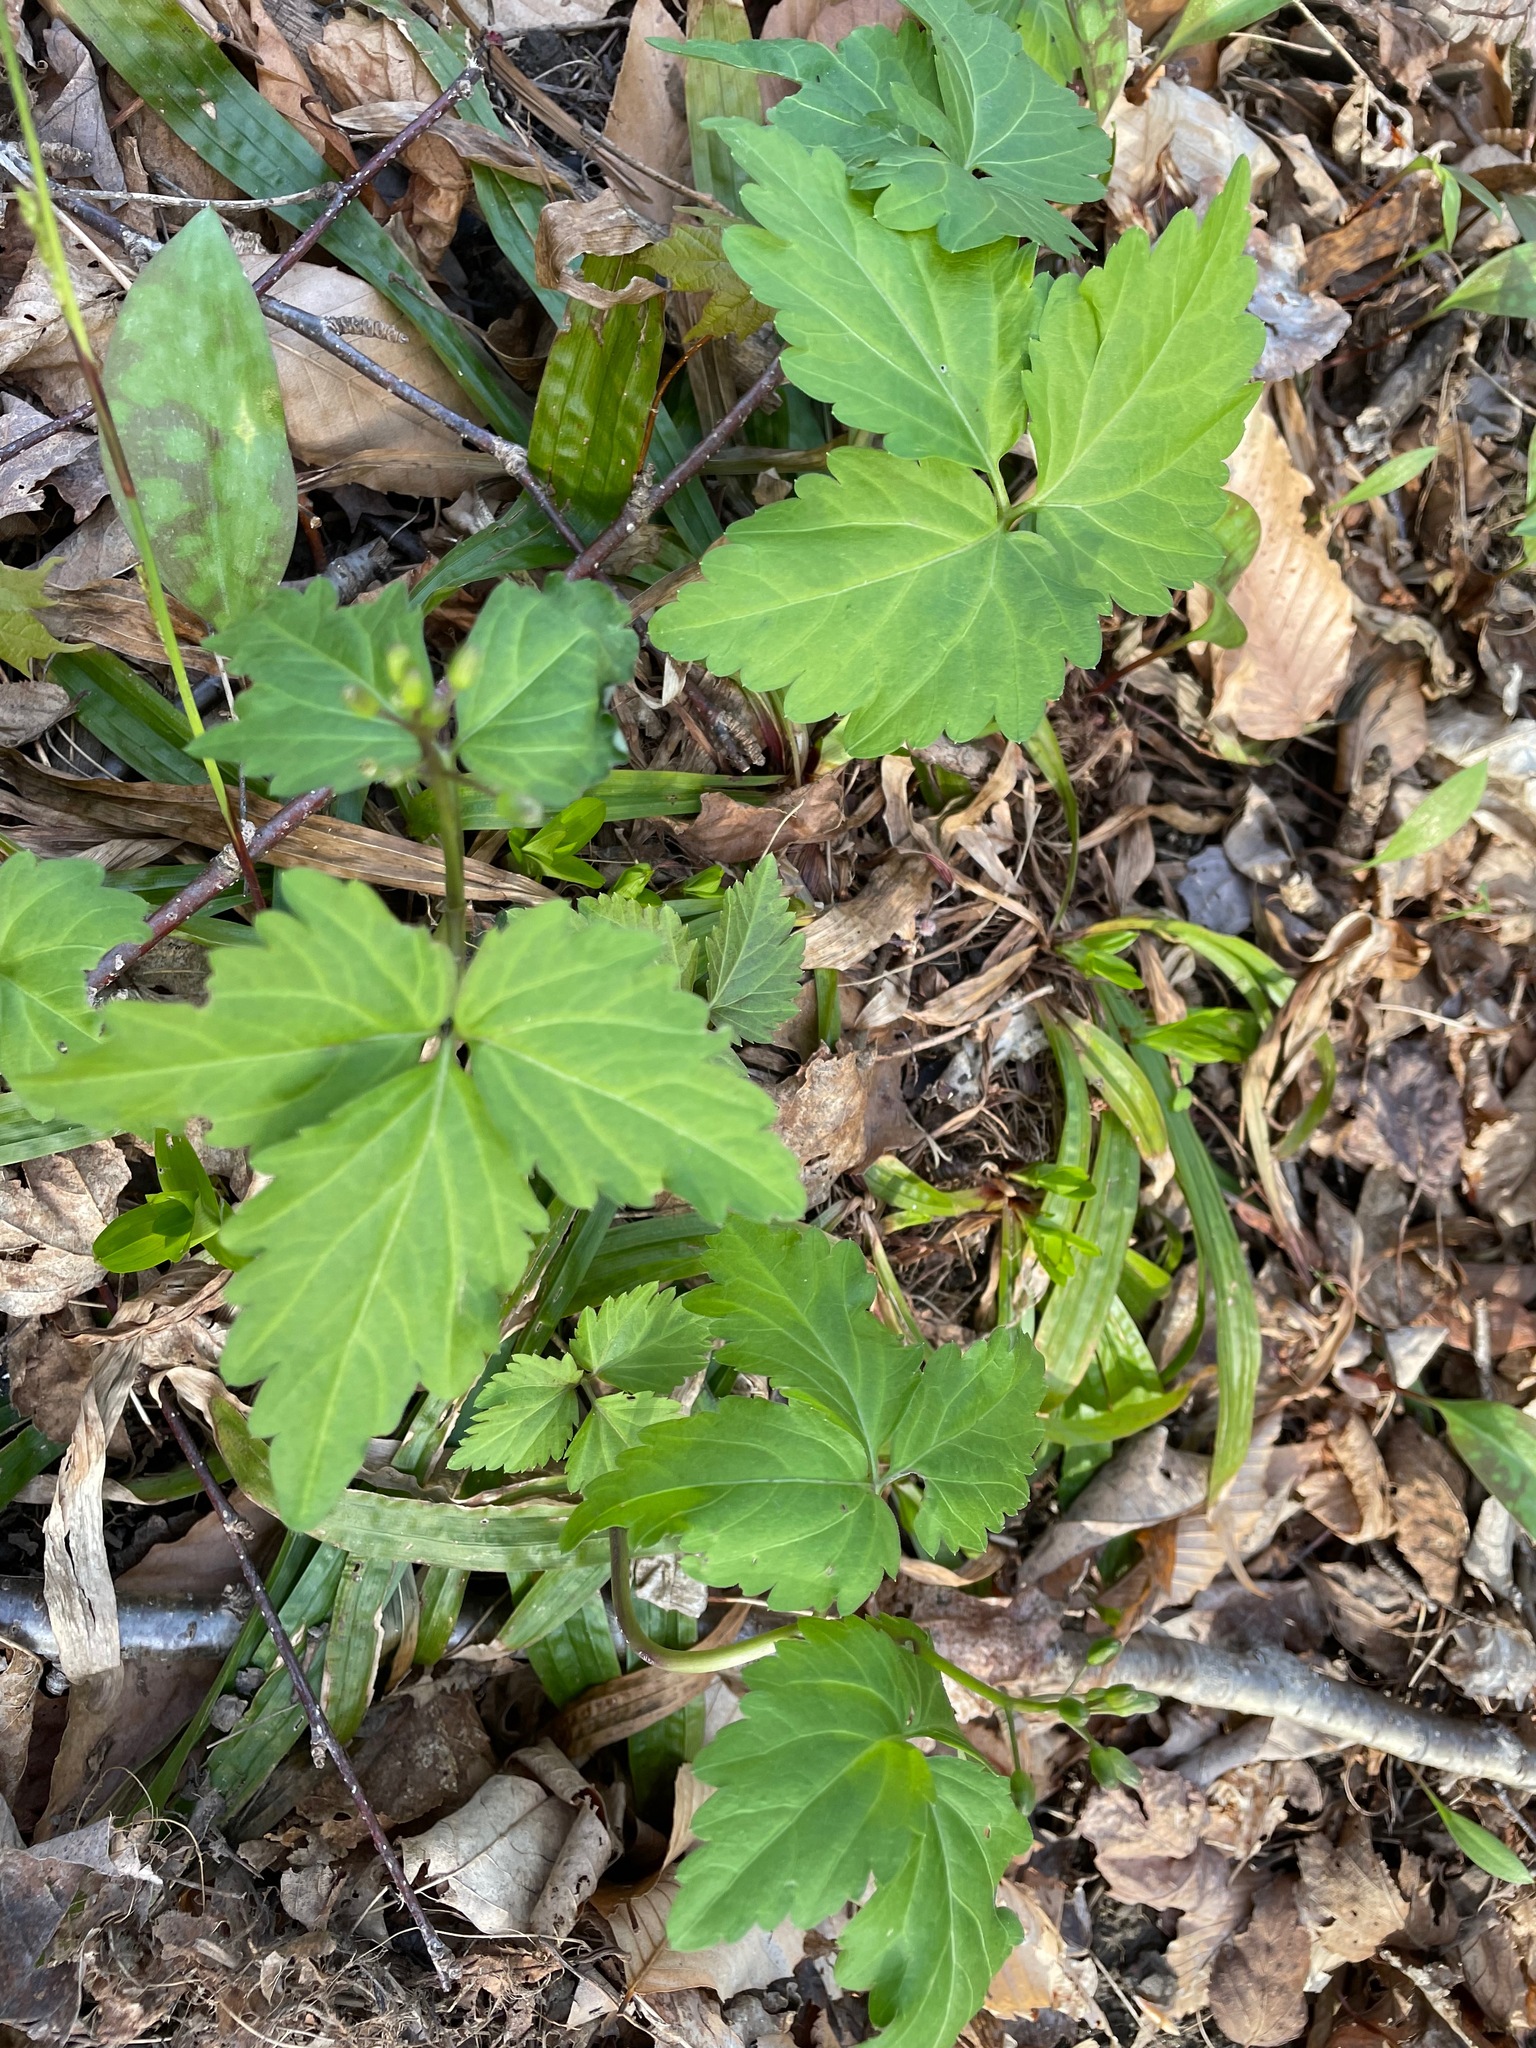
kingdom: Plantae
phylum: Tracheophyta
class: Magnoliopsida
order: Brassicales
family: Brassicaceae
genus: Cardamine
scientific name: Cardamine diphylla
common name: Broad-leaved toothwort
